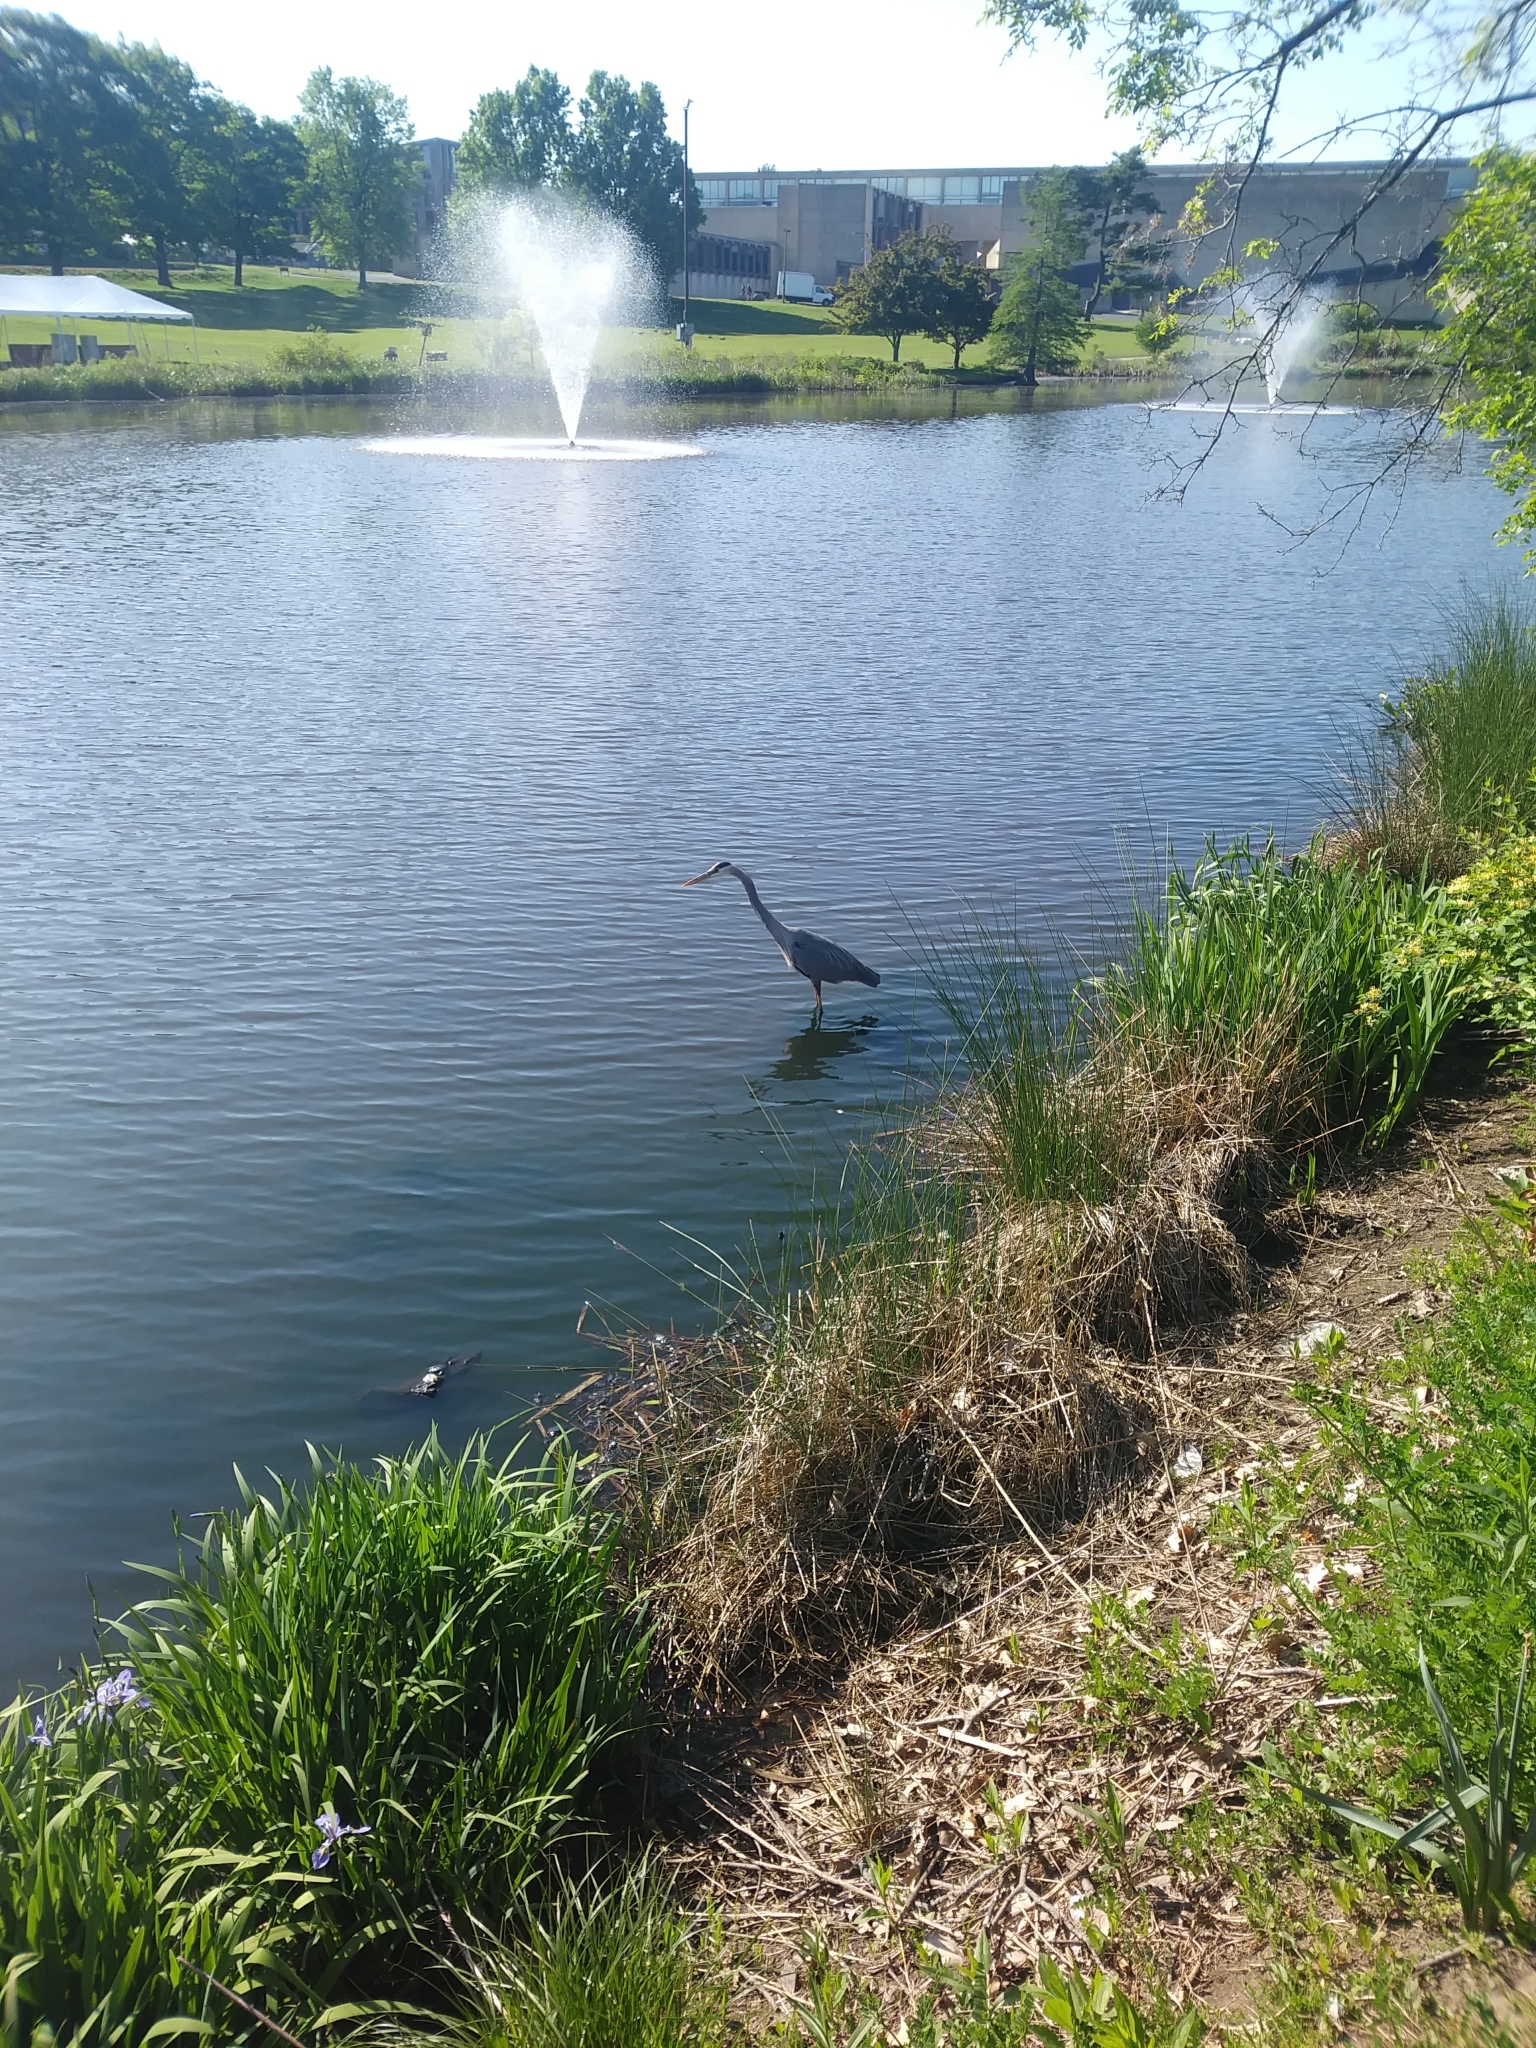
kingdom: Animalia
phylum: Chordata
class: Aves
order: Pelecaniformes
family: Ardeidae
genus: Ardea
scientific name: Ardea herodias
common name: Great blue heron
